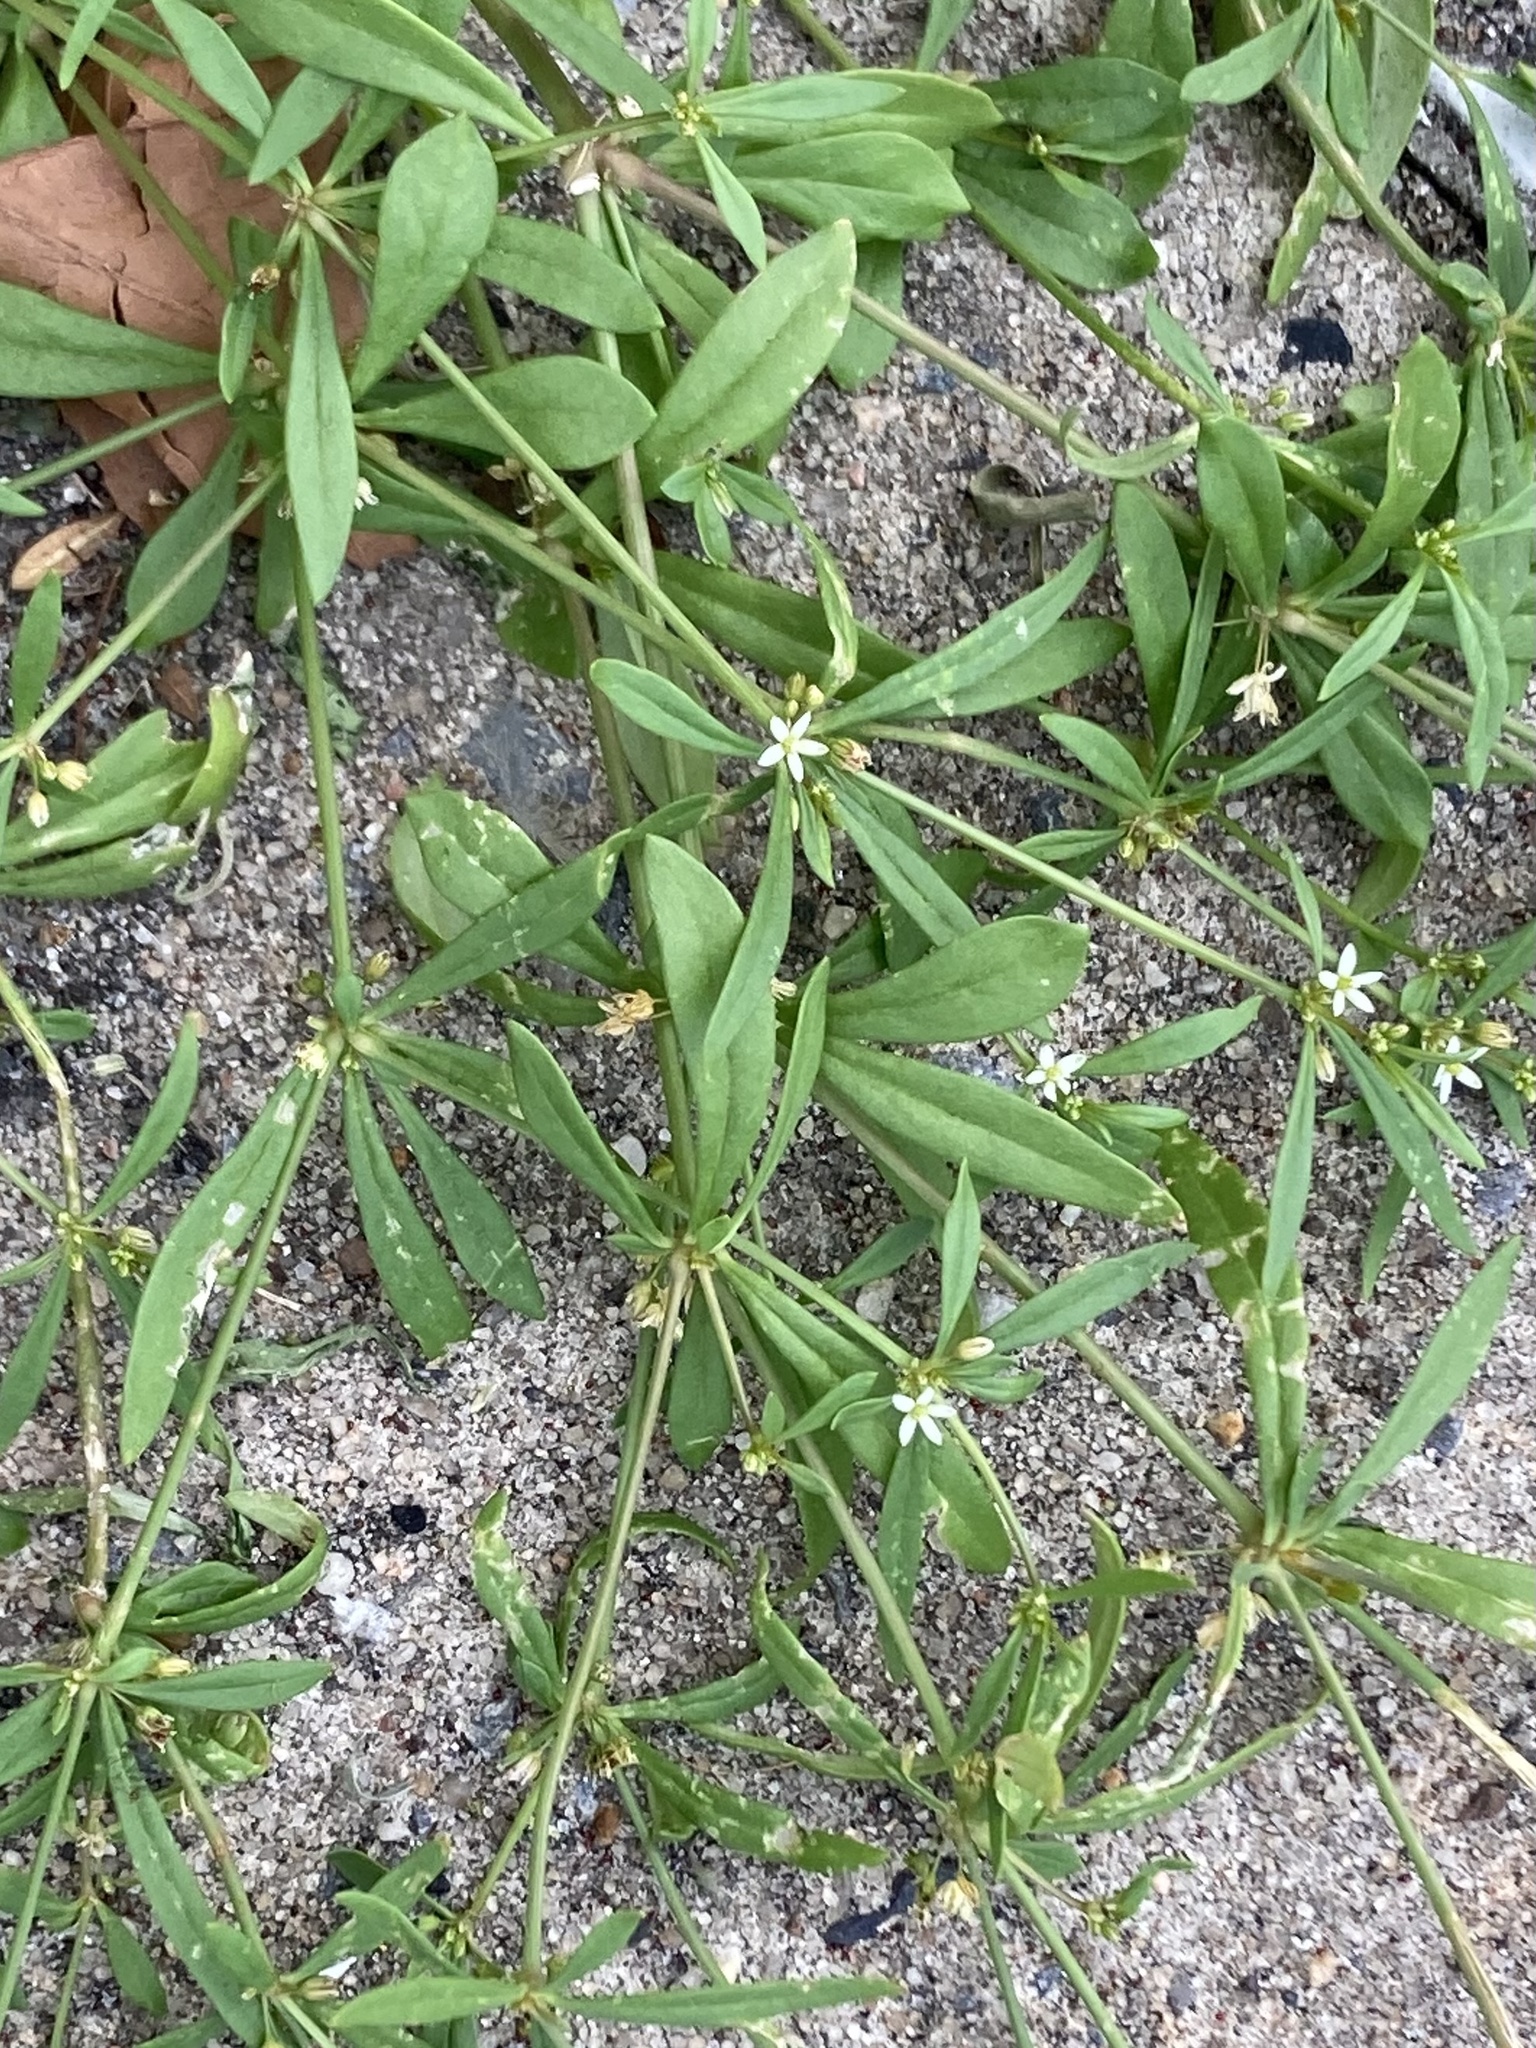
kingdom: Plantae
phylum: Tracheophyta
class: Magnoliopsida
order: Caryophyllales
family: Molluginaceae
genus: Mollugo
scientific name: Mollugo verticillata
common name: Green carpetweed
